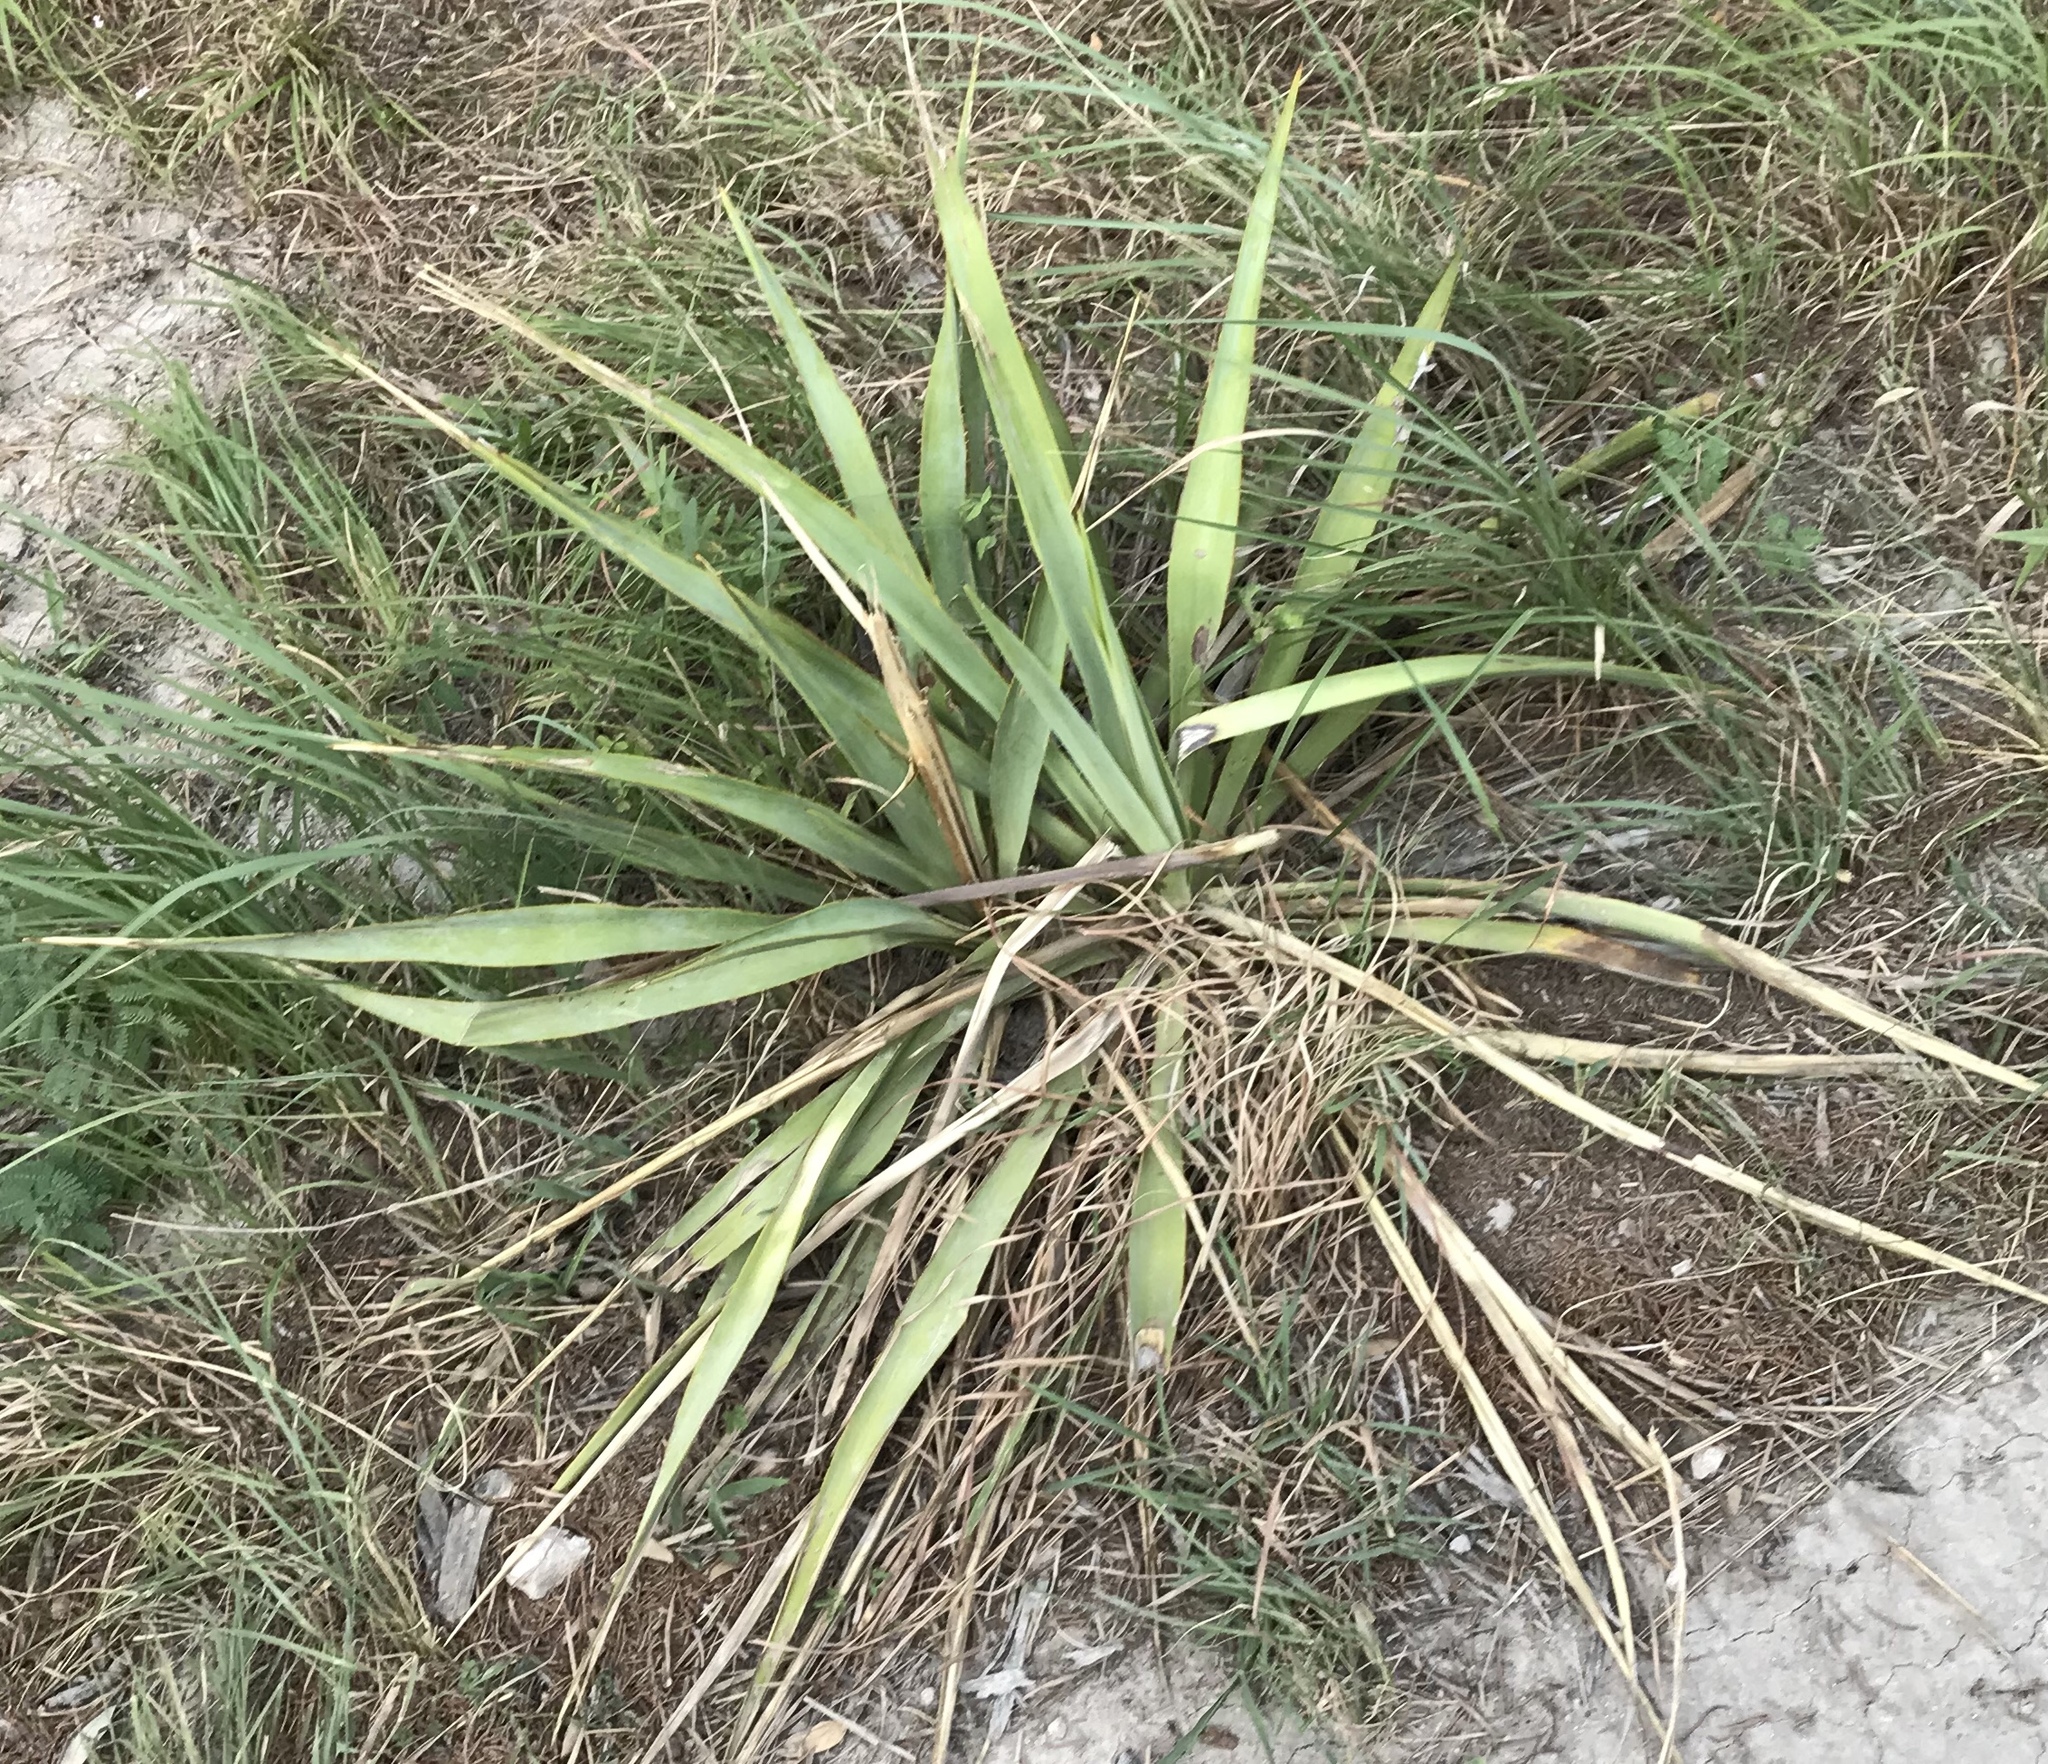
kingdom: Plantae
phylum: Tracheophyta
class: Liliopsida
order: Asparagales
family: Asparagaceae
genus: Yucca
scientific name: Yucca rupicola
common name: Twisted-leaf spanish-dagger
